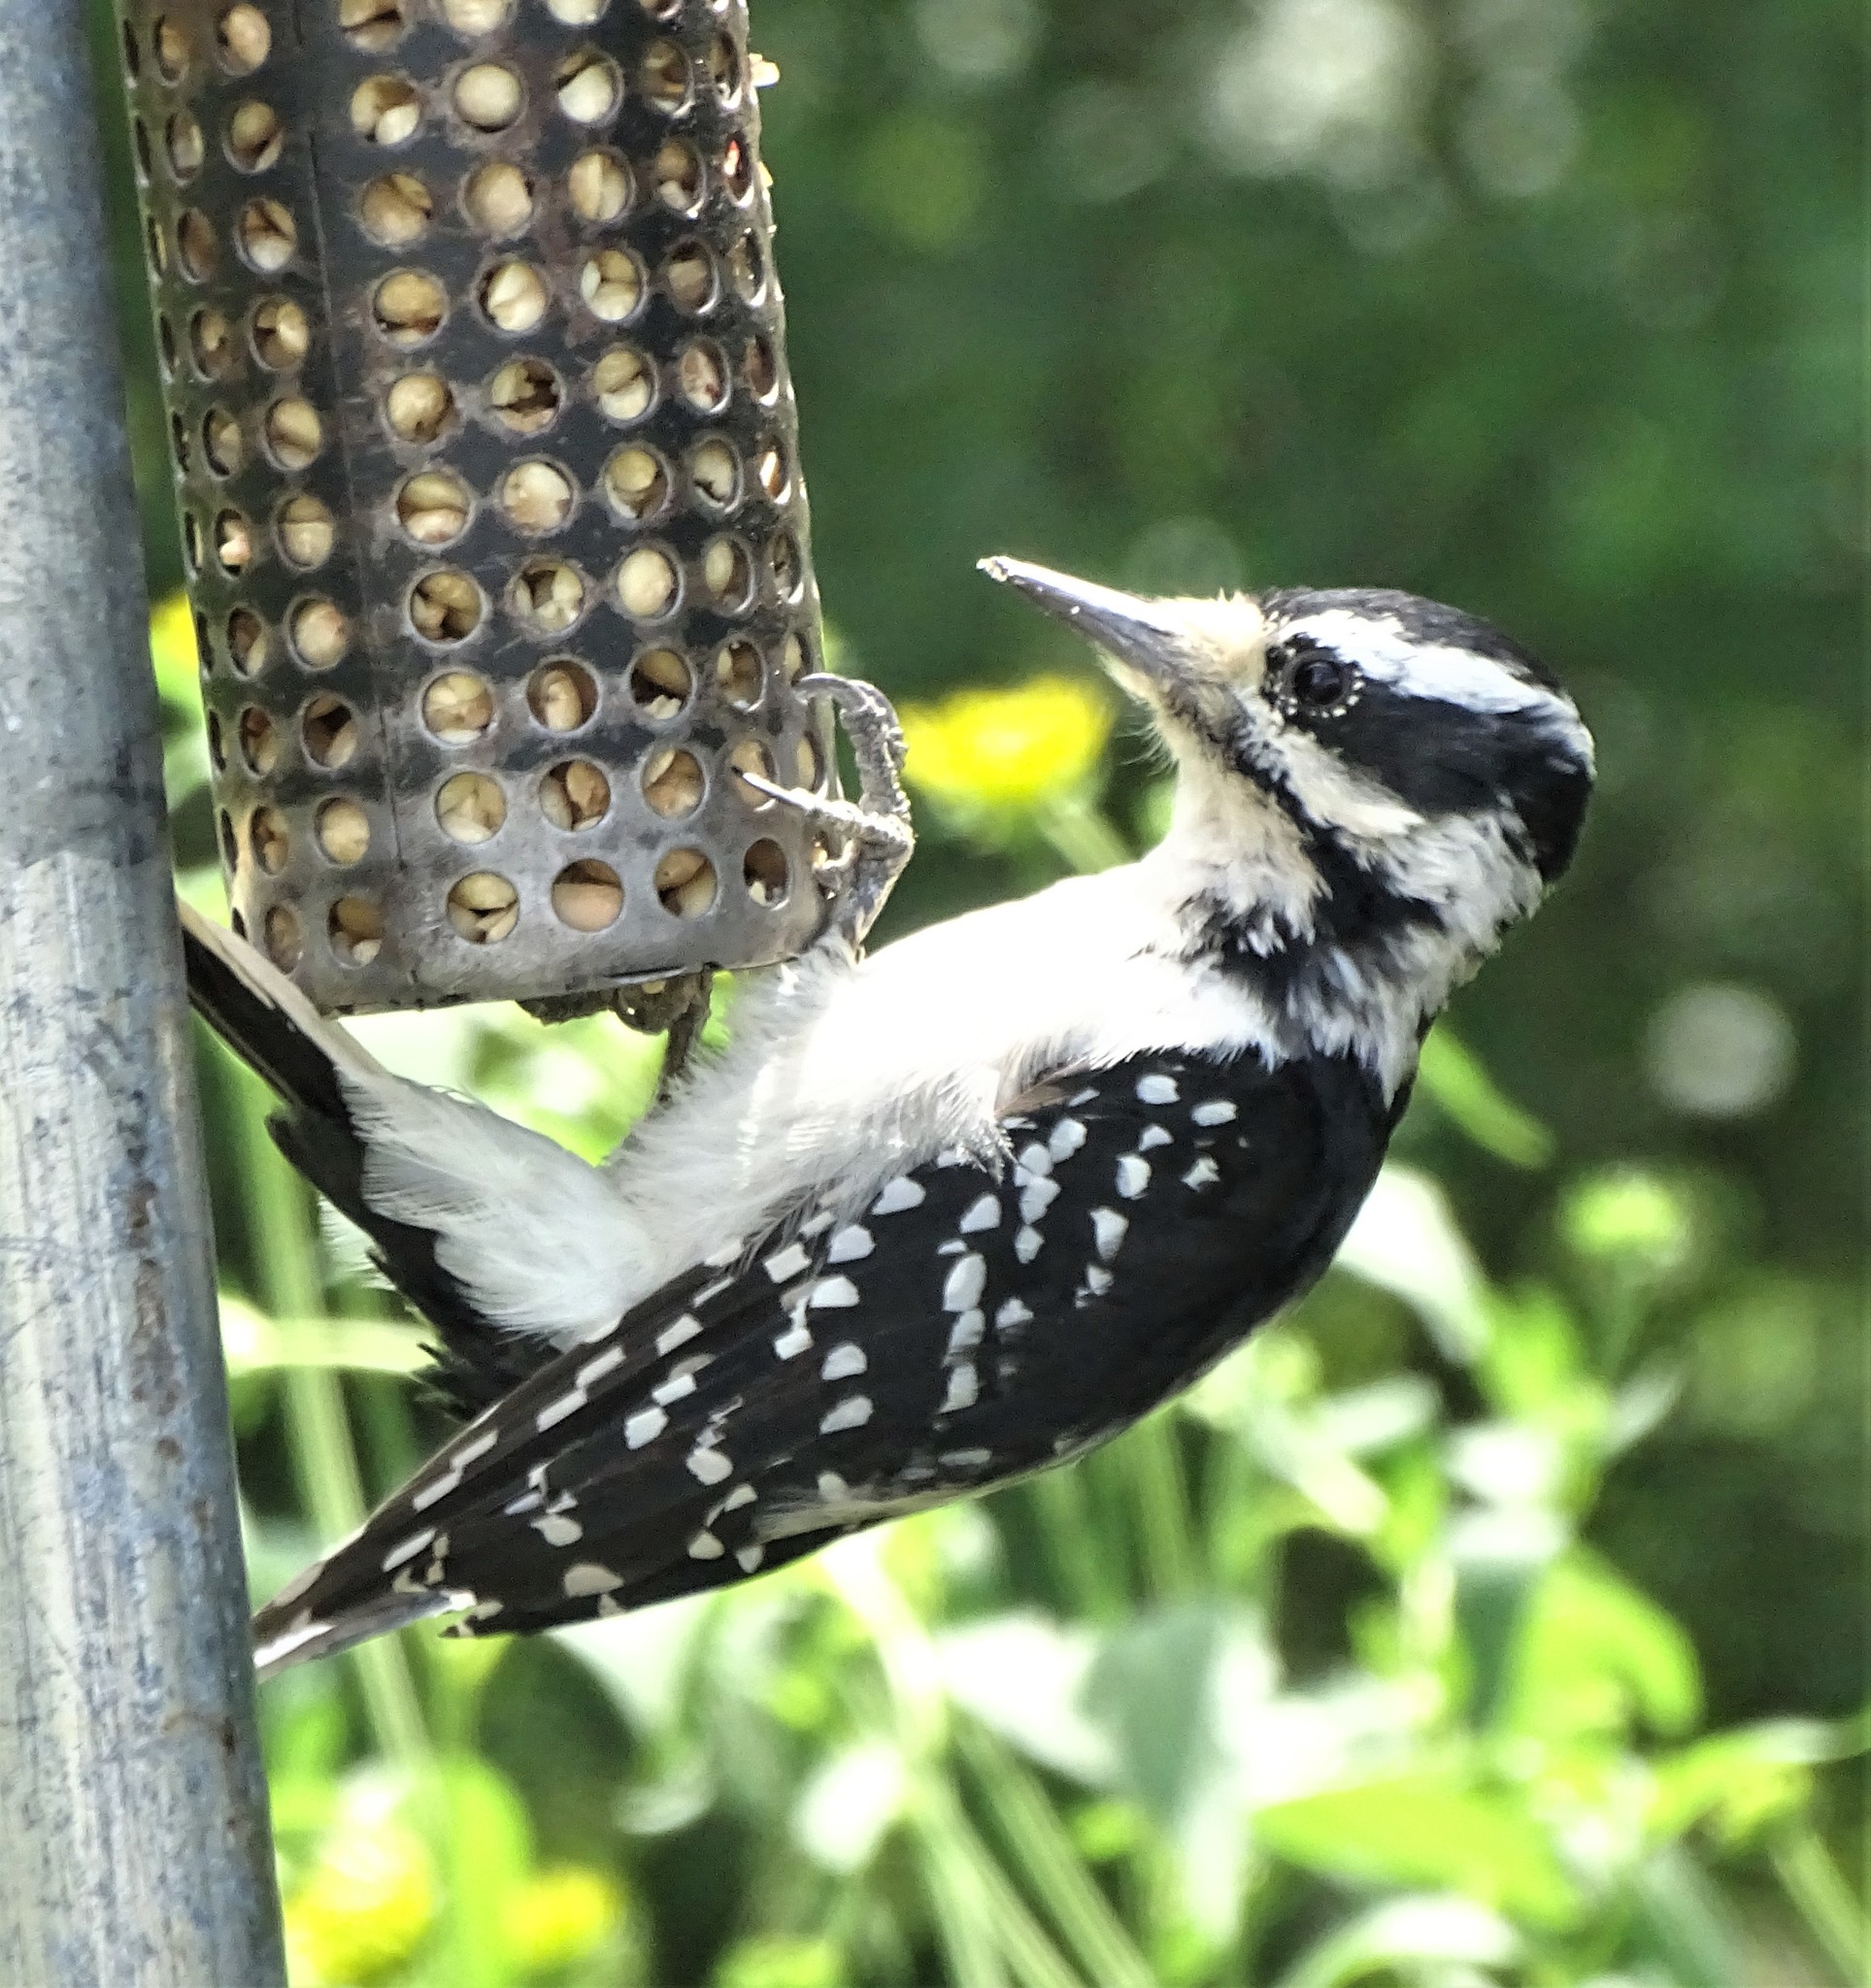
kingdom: Animalia
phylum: Chordata
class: Aves
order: Piciformes
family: Picidae
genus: Leuconotopicus
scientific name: Leuconotopicus villosus
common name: Hairy woodpecker
